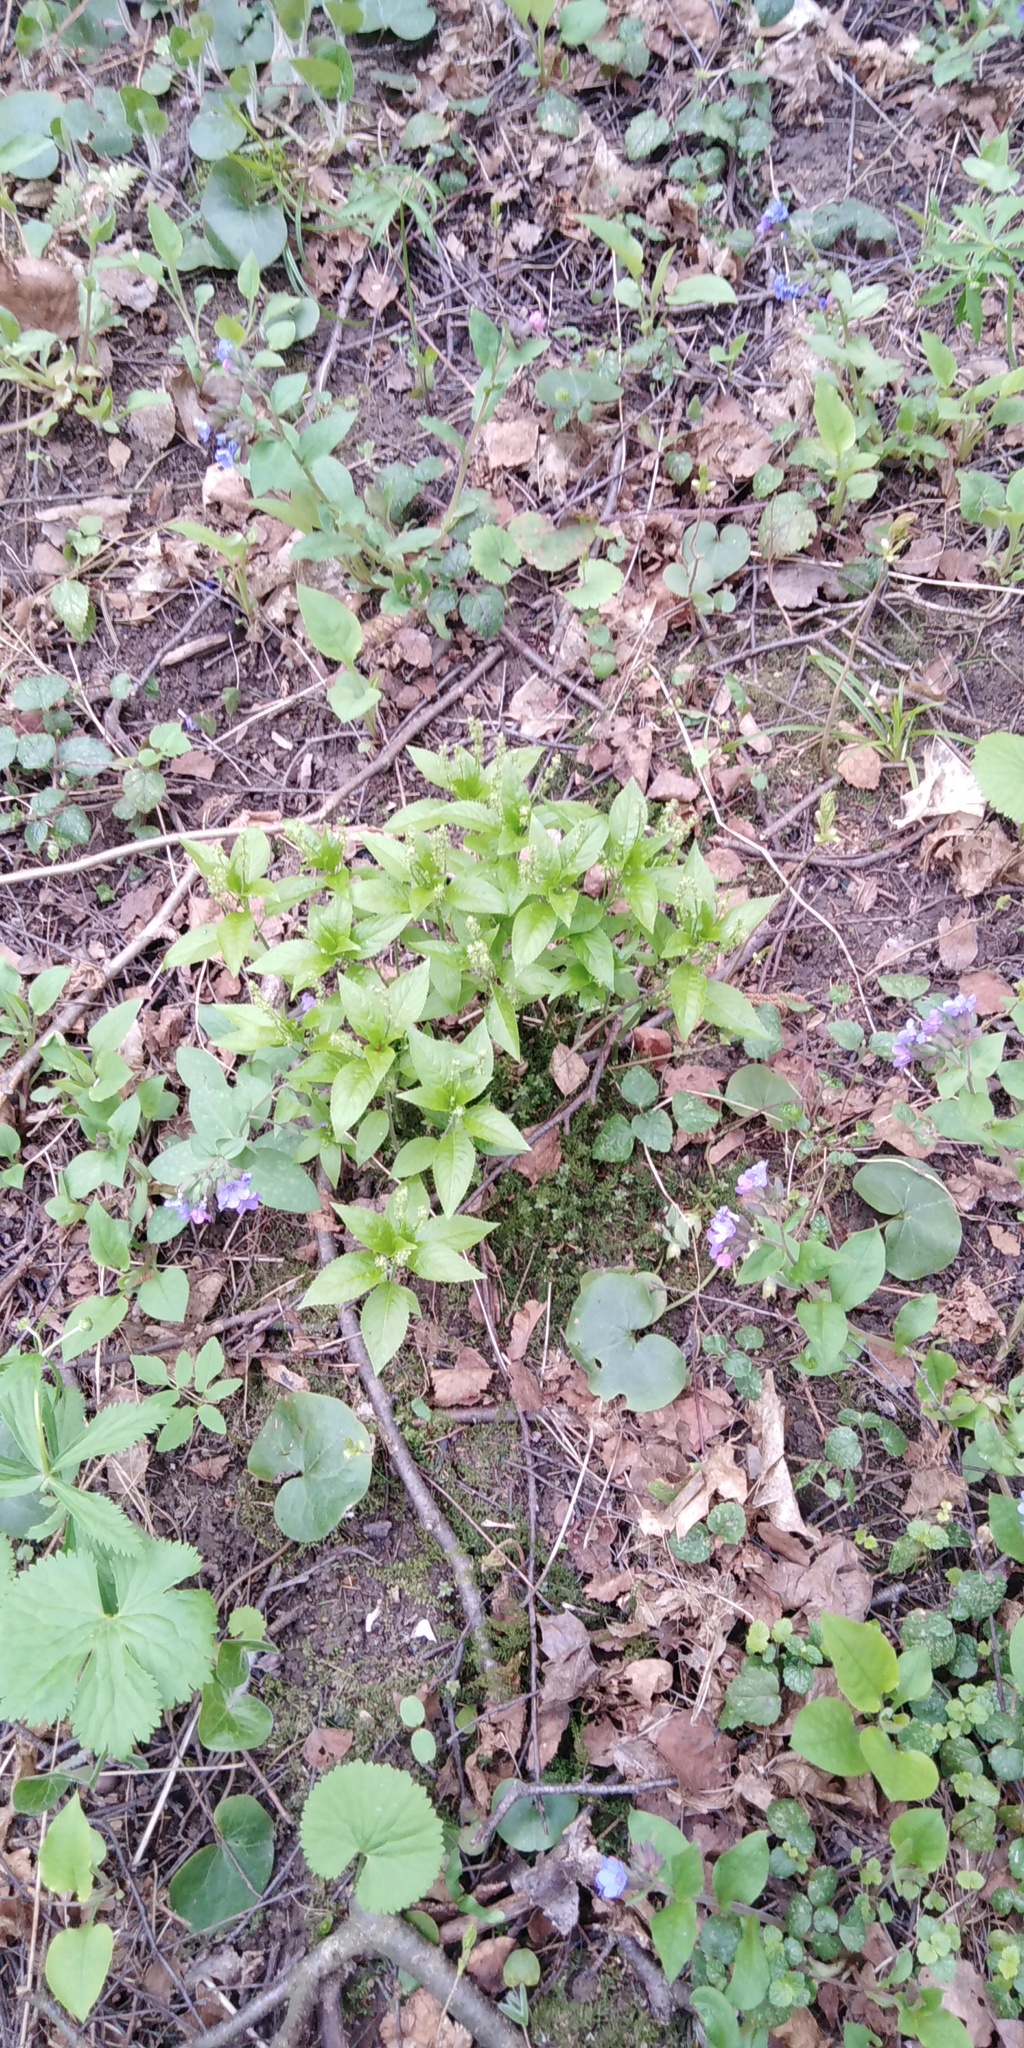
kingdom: Plantae
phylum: Tracheophyta
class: Magnoliopsida
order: Malpighiales
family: Euphorbiaceae
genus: Mercurialis
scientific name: Mercurialis perennis
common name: Dog mercury
